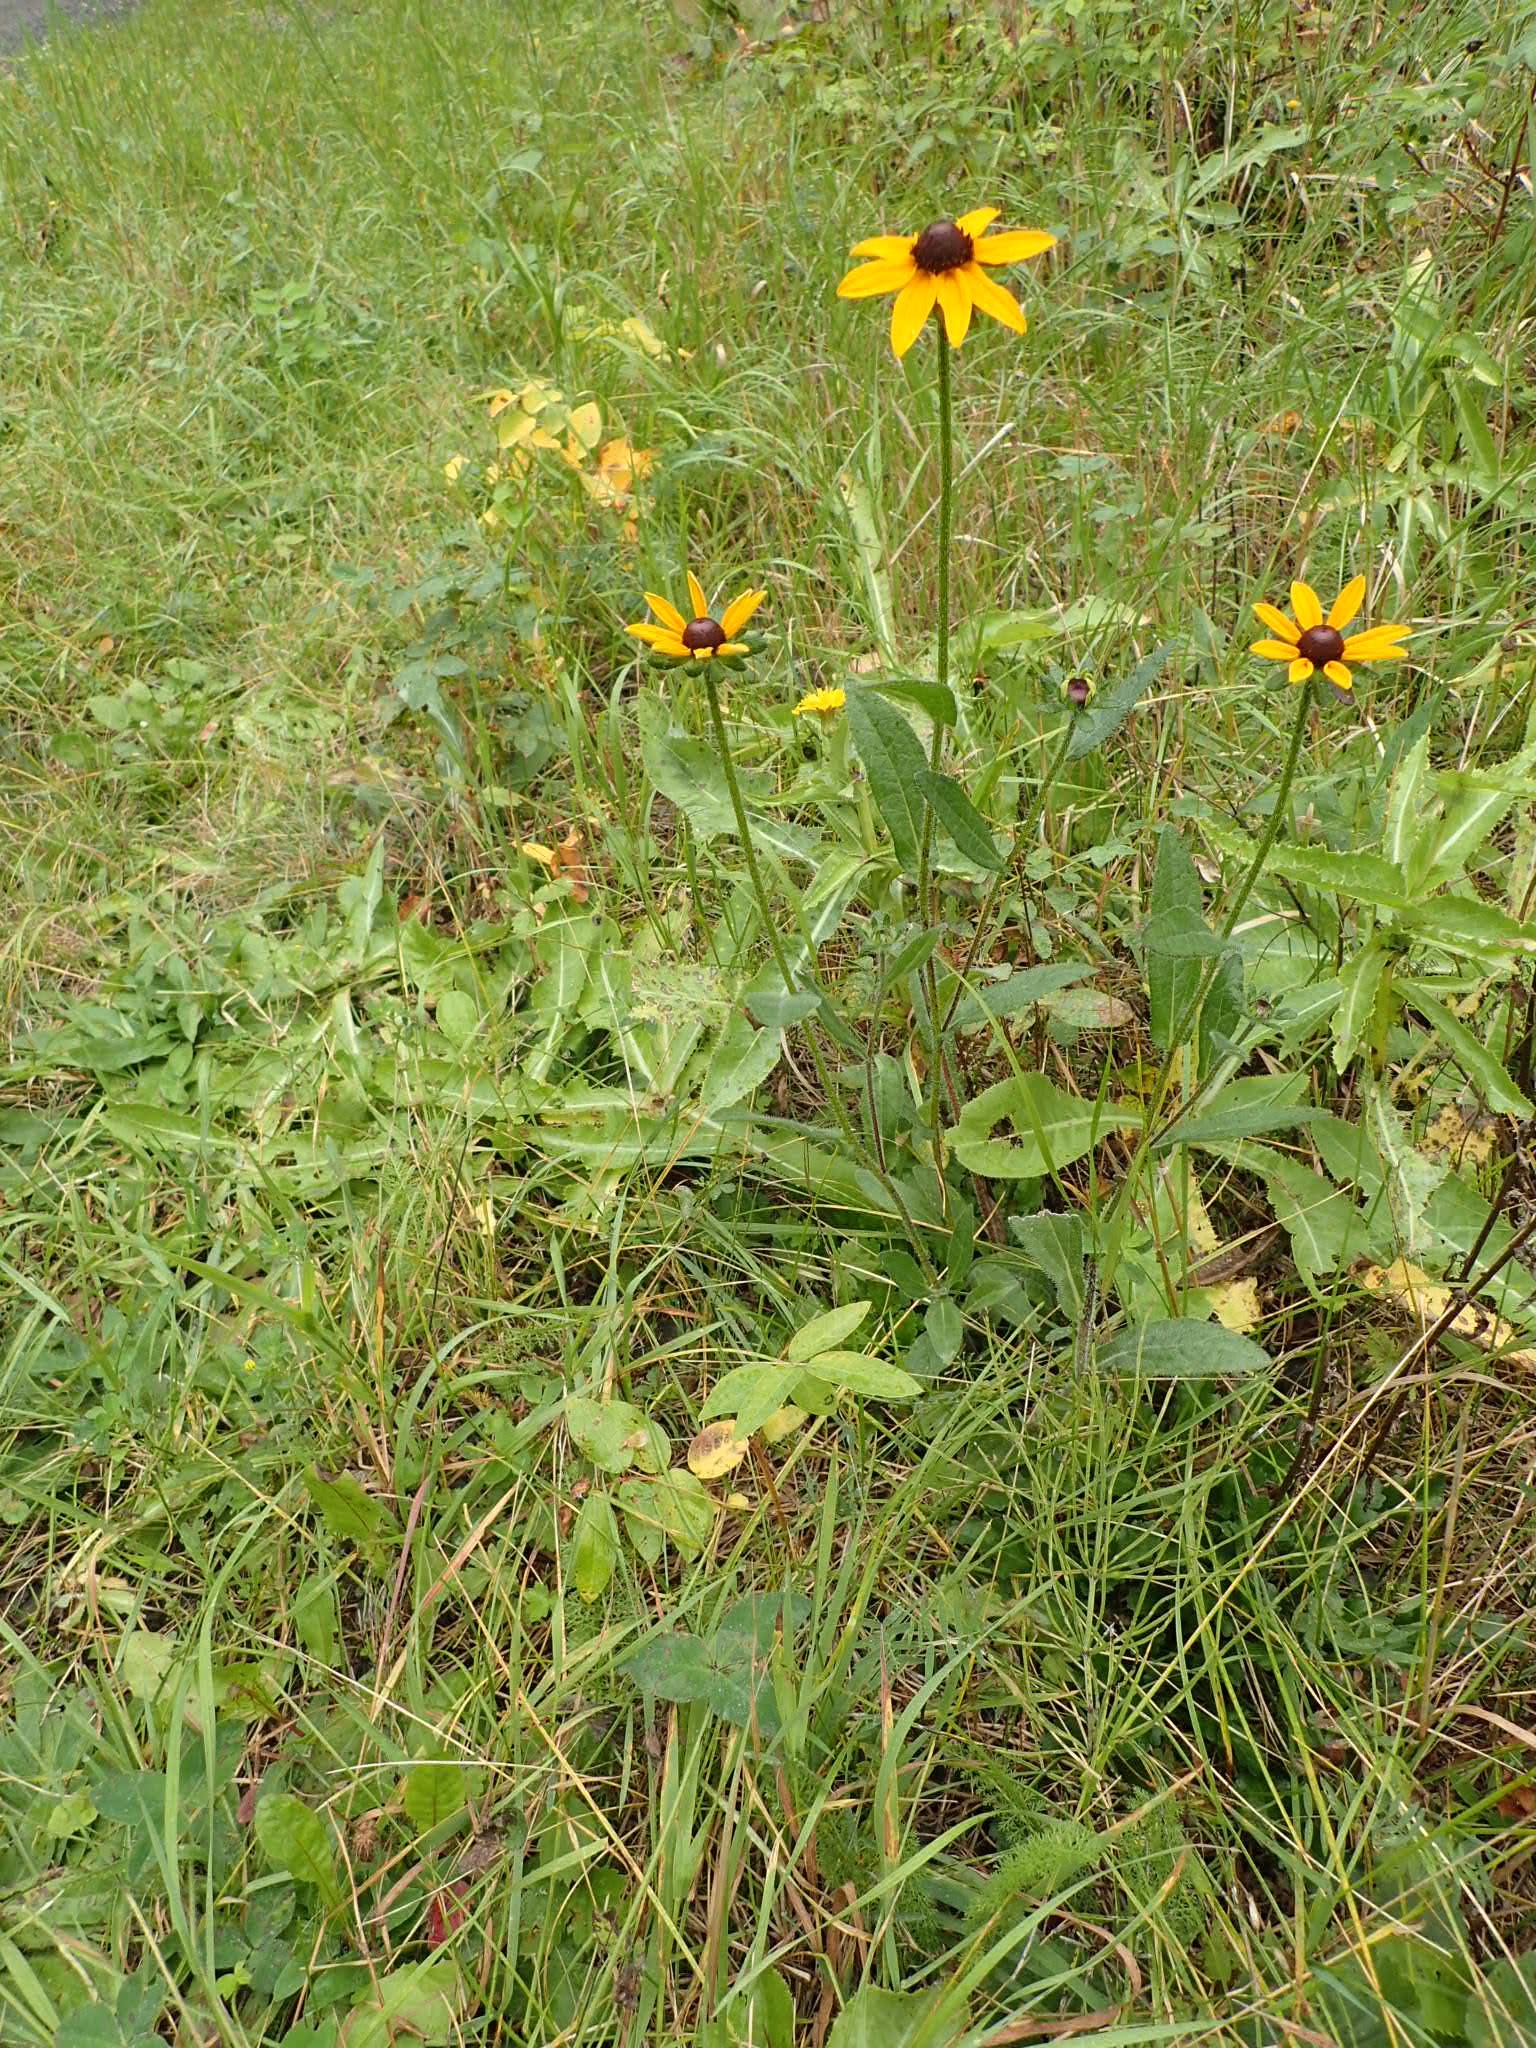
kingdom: Plantae
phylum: Tracheophyta
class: Magnoliopsida
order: Asterales
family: Asteraceae
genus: Rudbeckia
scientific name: Rudbeckia hirta
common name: Black-eyed-susan
